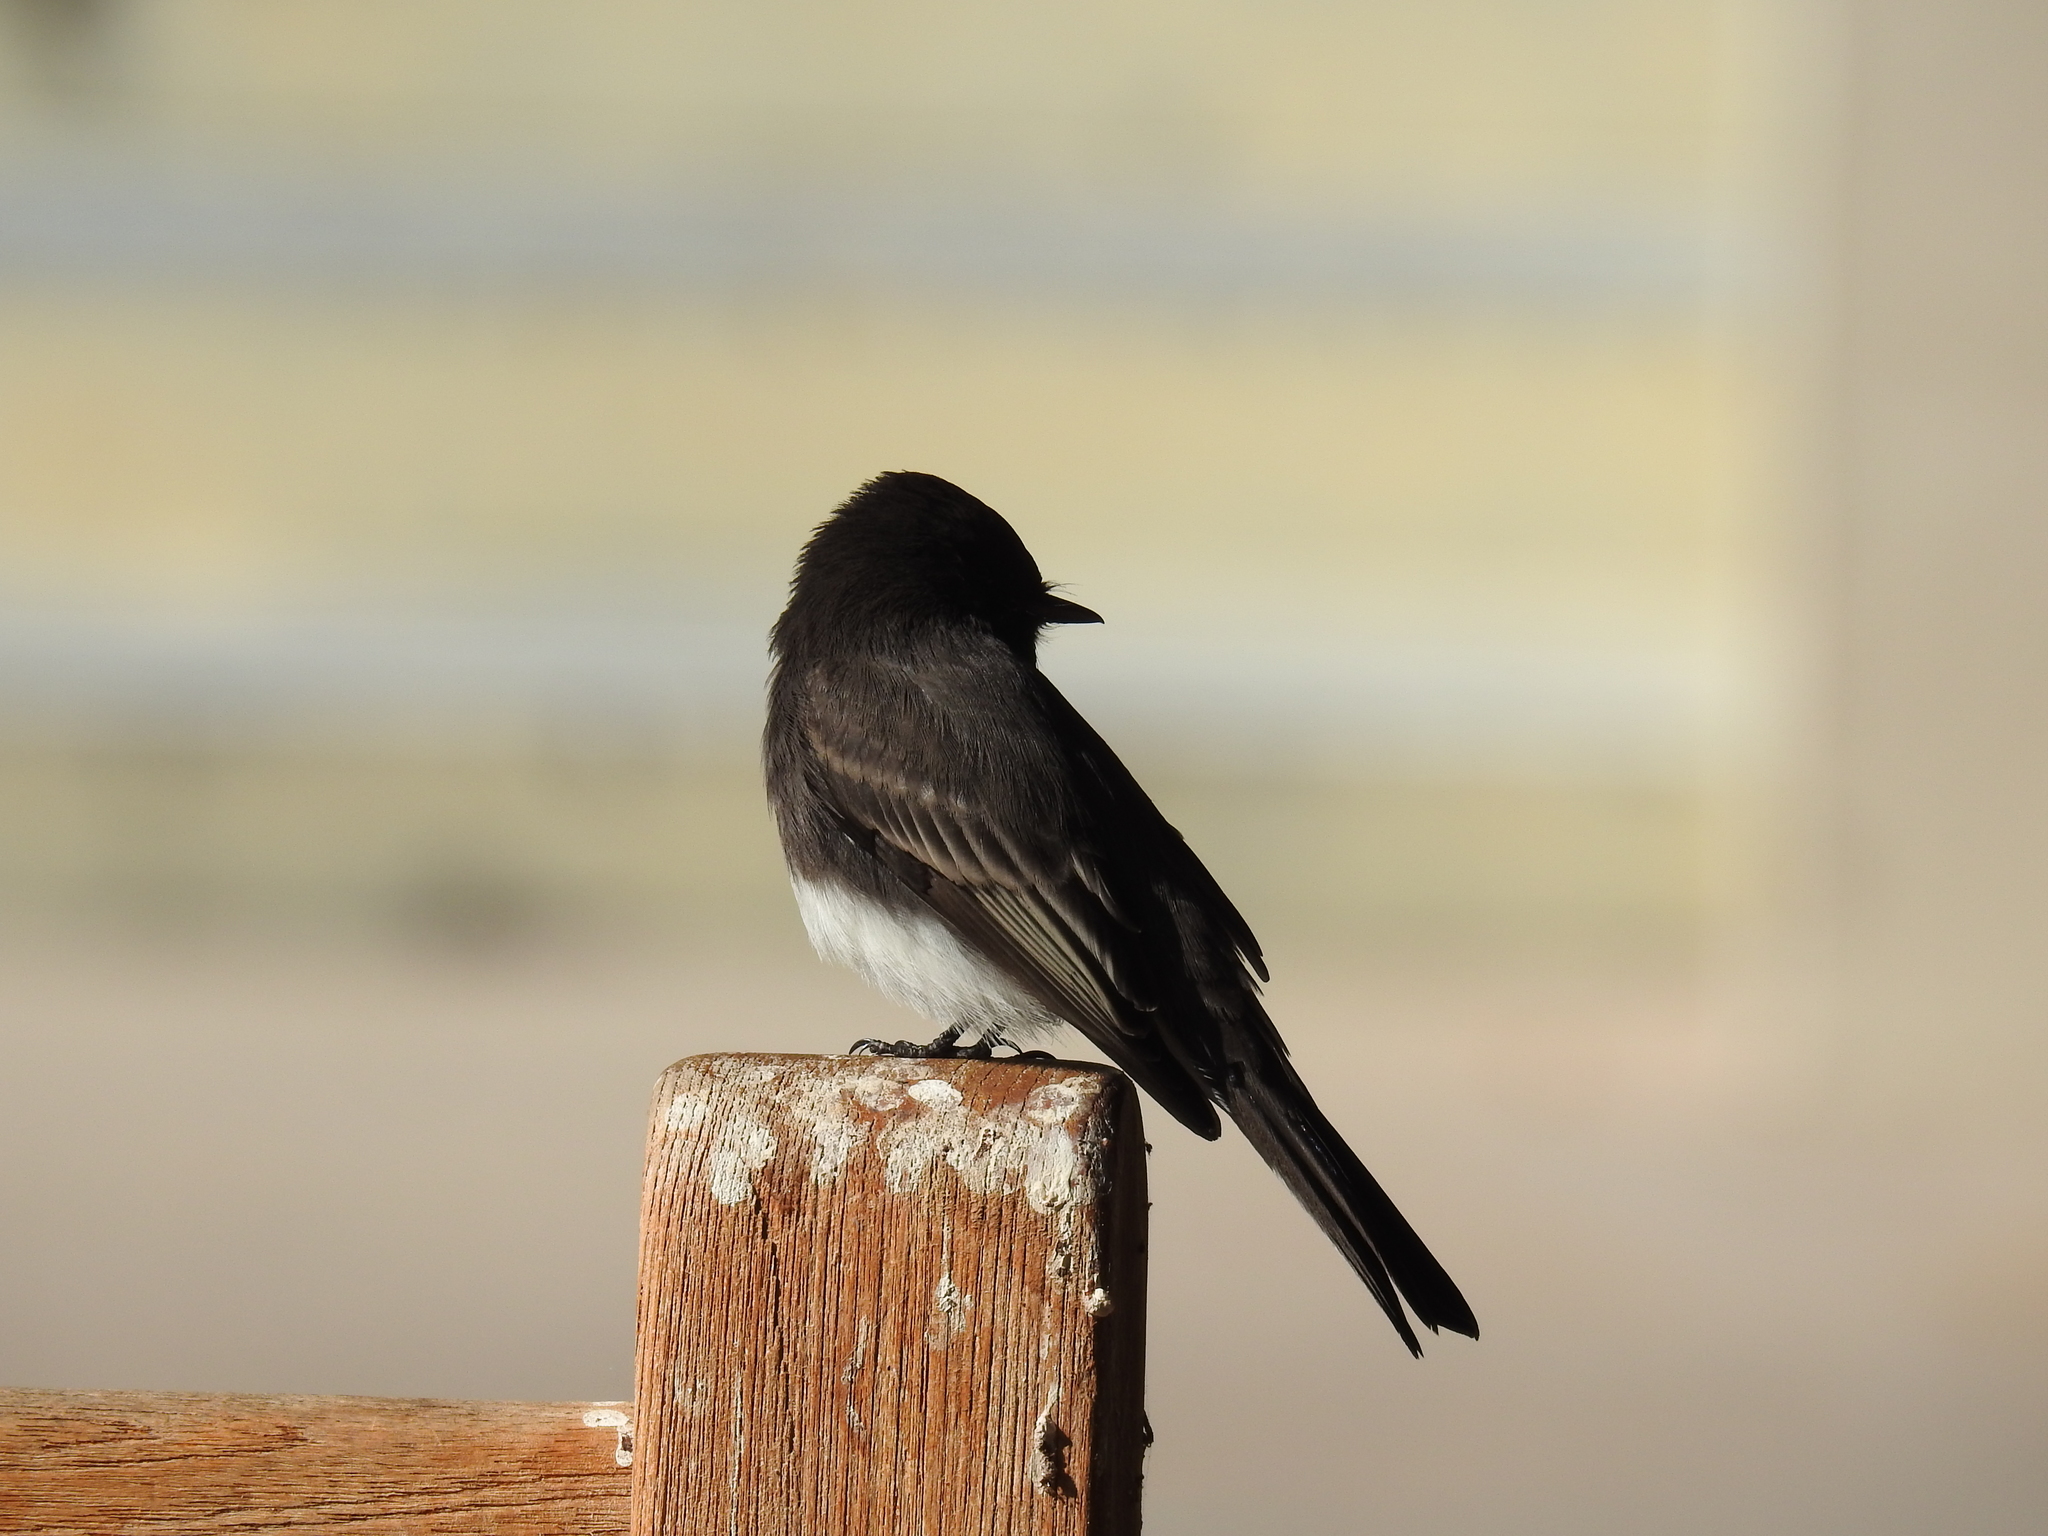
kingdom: Animalia
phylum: Chordata
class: Aves
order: Passeriformes
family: Tyrannidae
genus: Sayornis
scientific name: Sayornis nigricans
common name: Black phoebe
